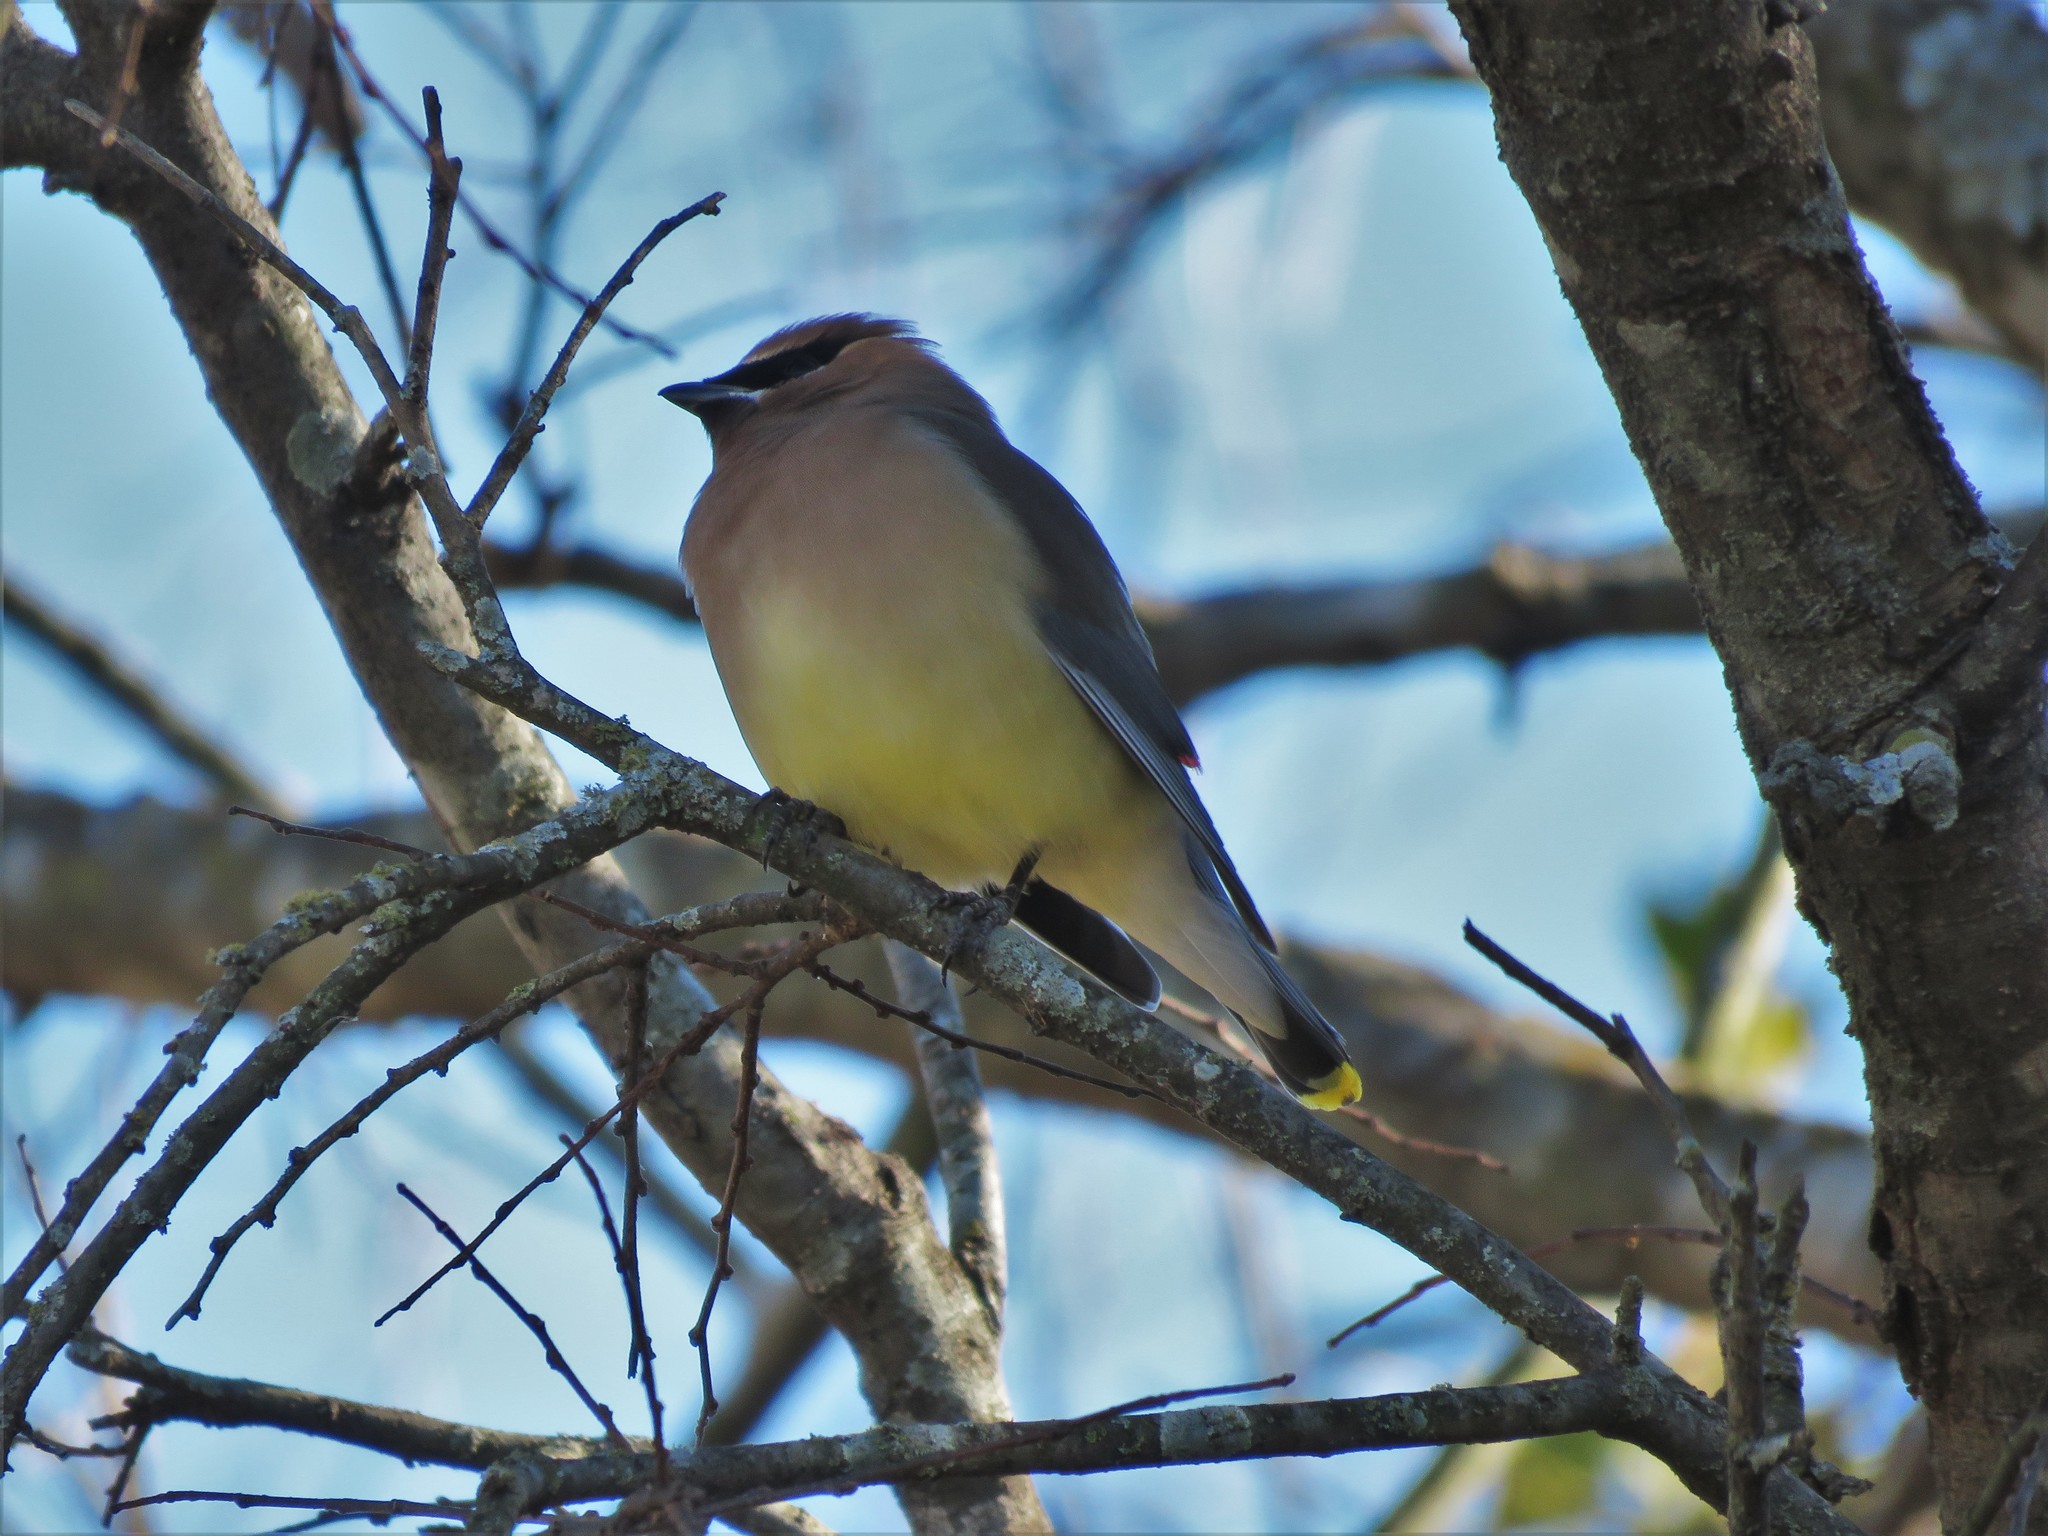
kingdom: Animalia
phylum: Chordata
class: Aves
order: Passeriformes
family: Bombycillidae
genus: Bombycilla
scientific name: Bombycilla cedrorum
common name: Cedar waxwing
